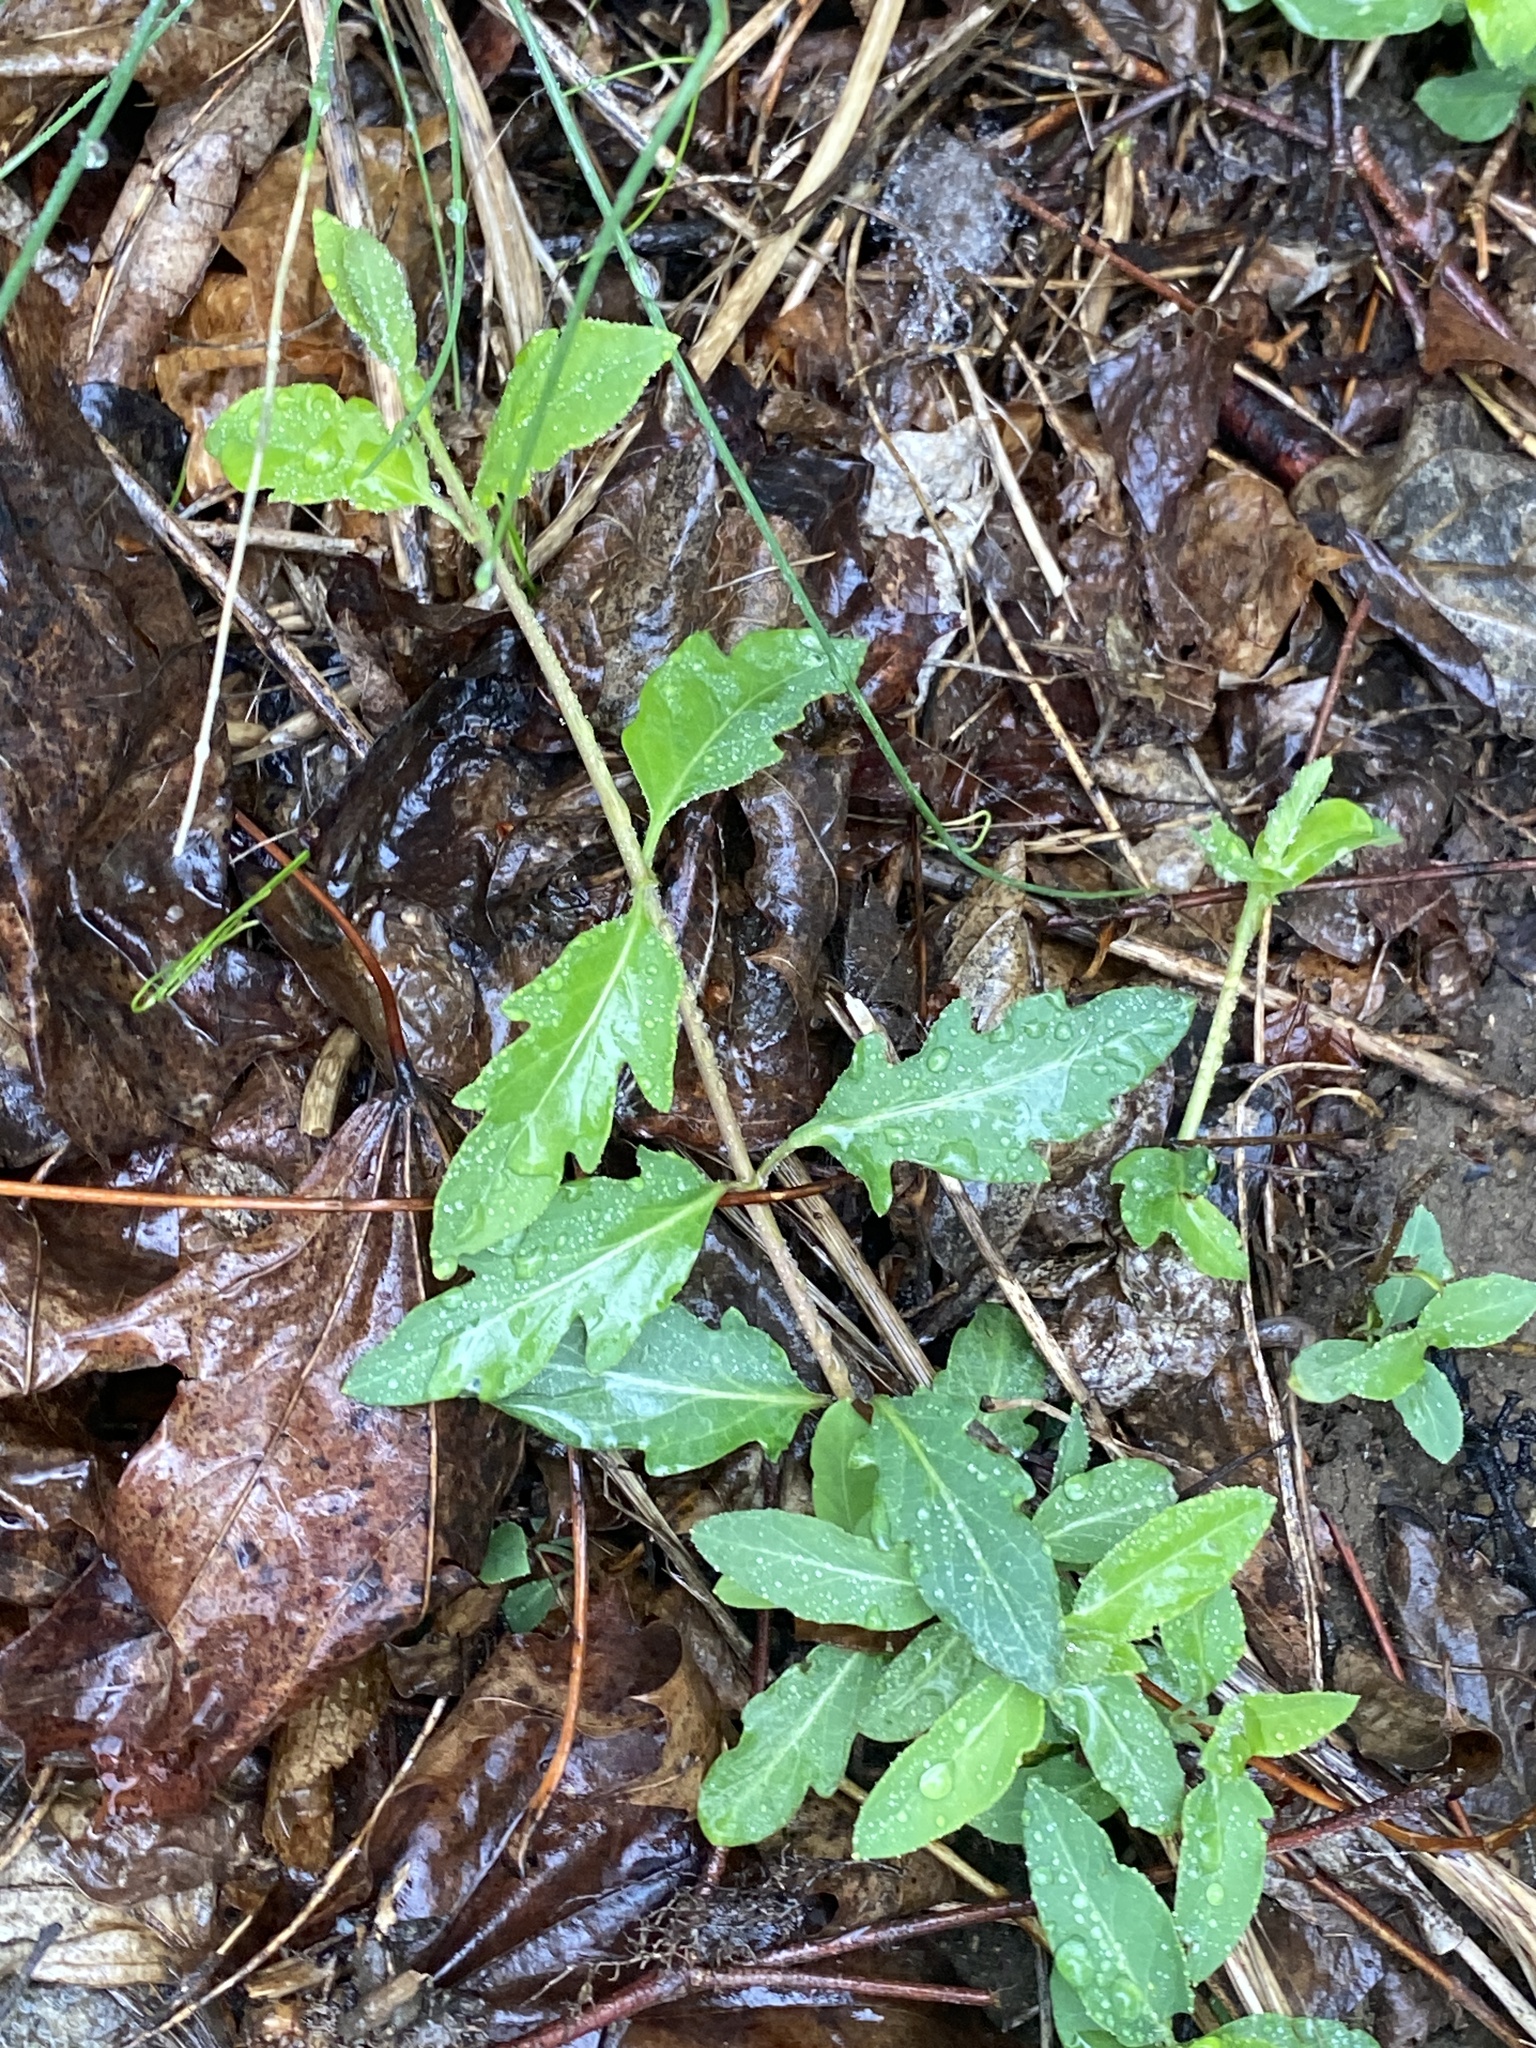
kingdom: Plantae
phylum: Tracheophyta
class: Magnoliopsida
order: Dipsacales
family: Caprifoliaceae
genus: Lonicera
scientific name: Lonicera japonica
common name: Japanese honeysuckle
